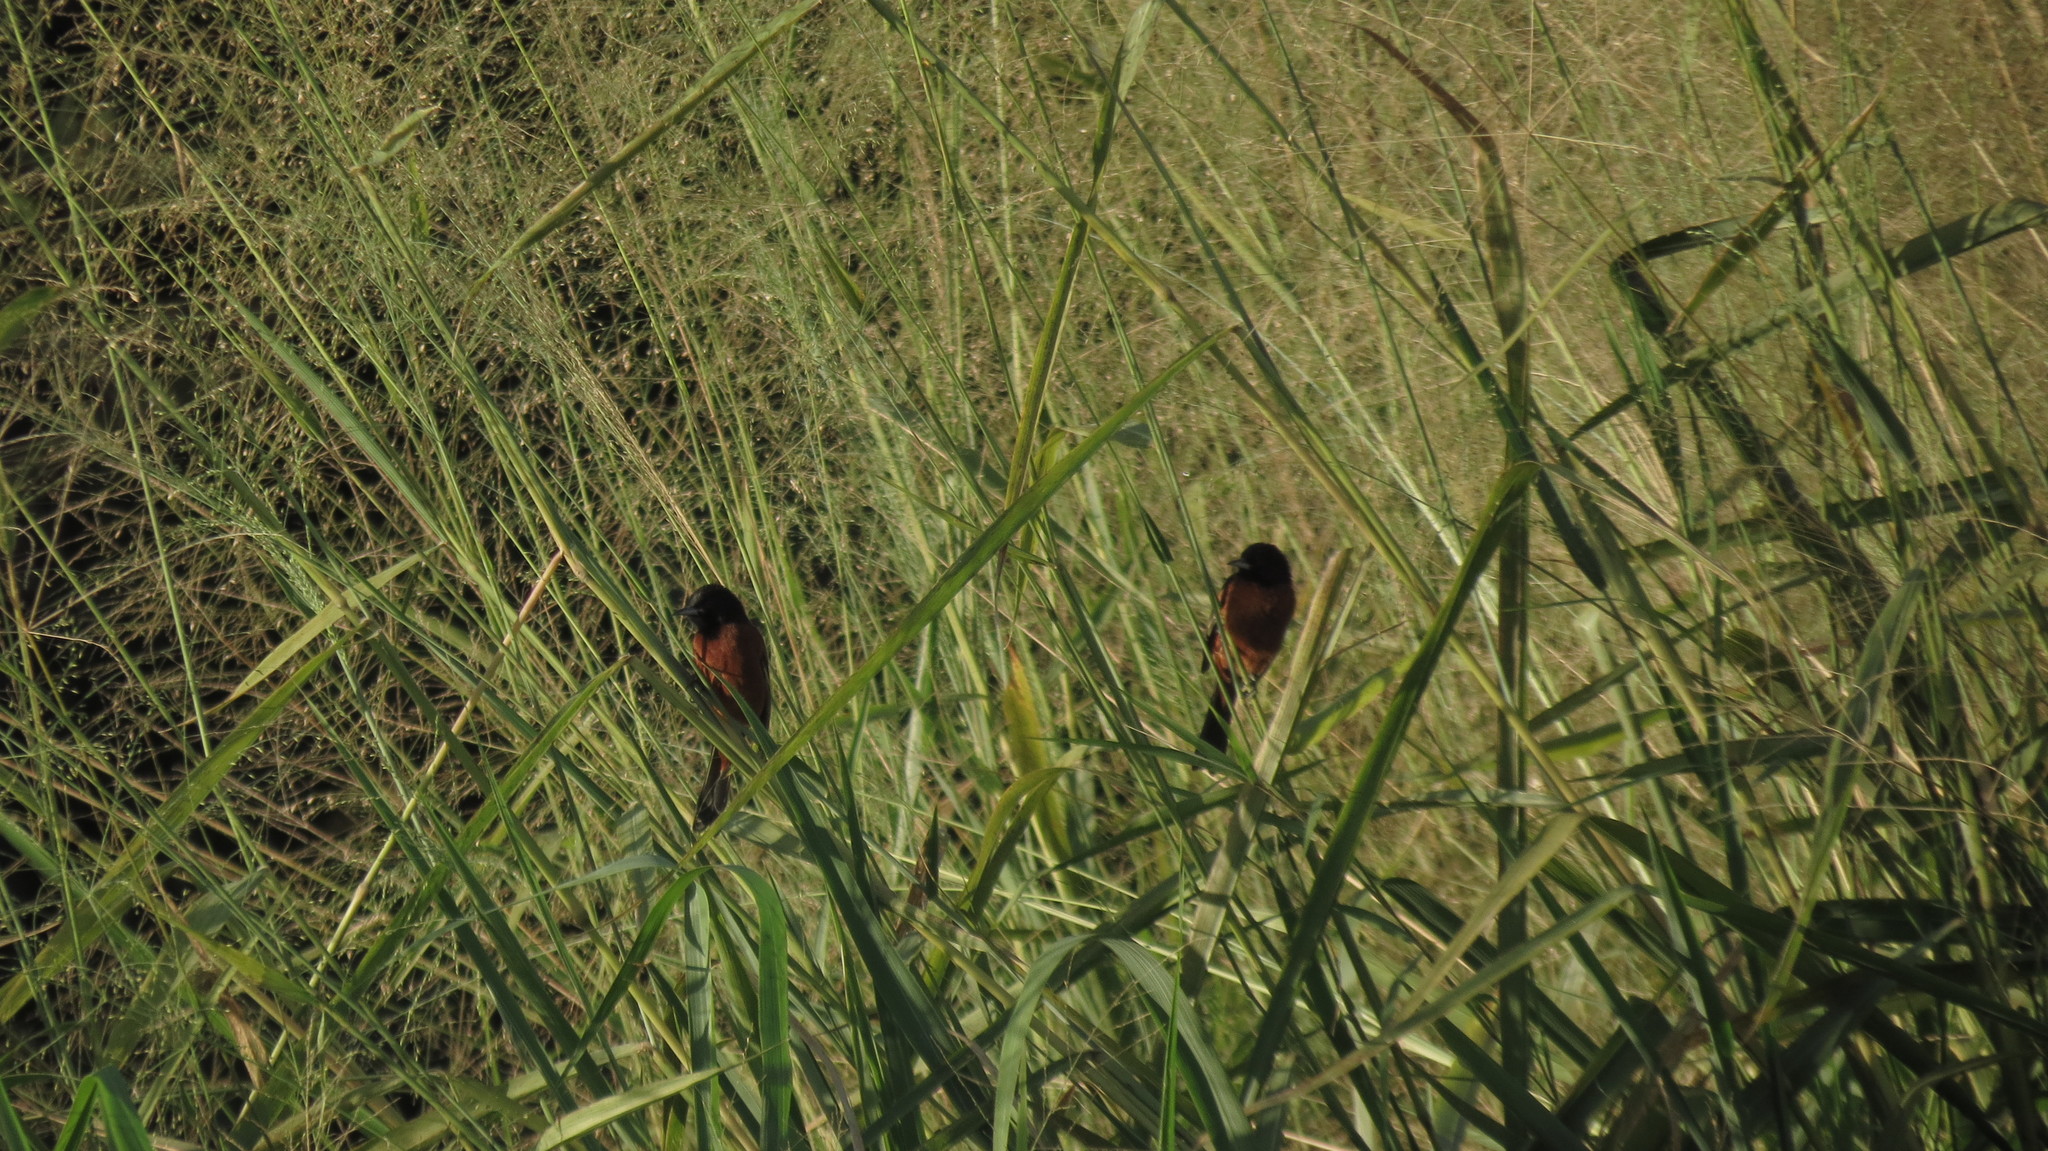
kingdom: Animalia
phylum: Chordata
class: Aves
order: Passeriformes
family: Icteridae
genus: Icterus
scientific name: Icterus spurius
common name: Orchard oriole
